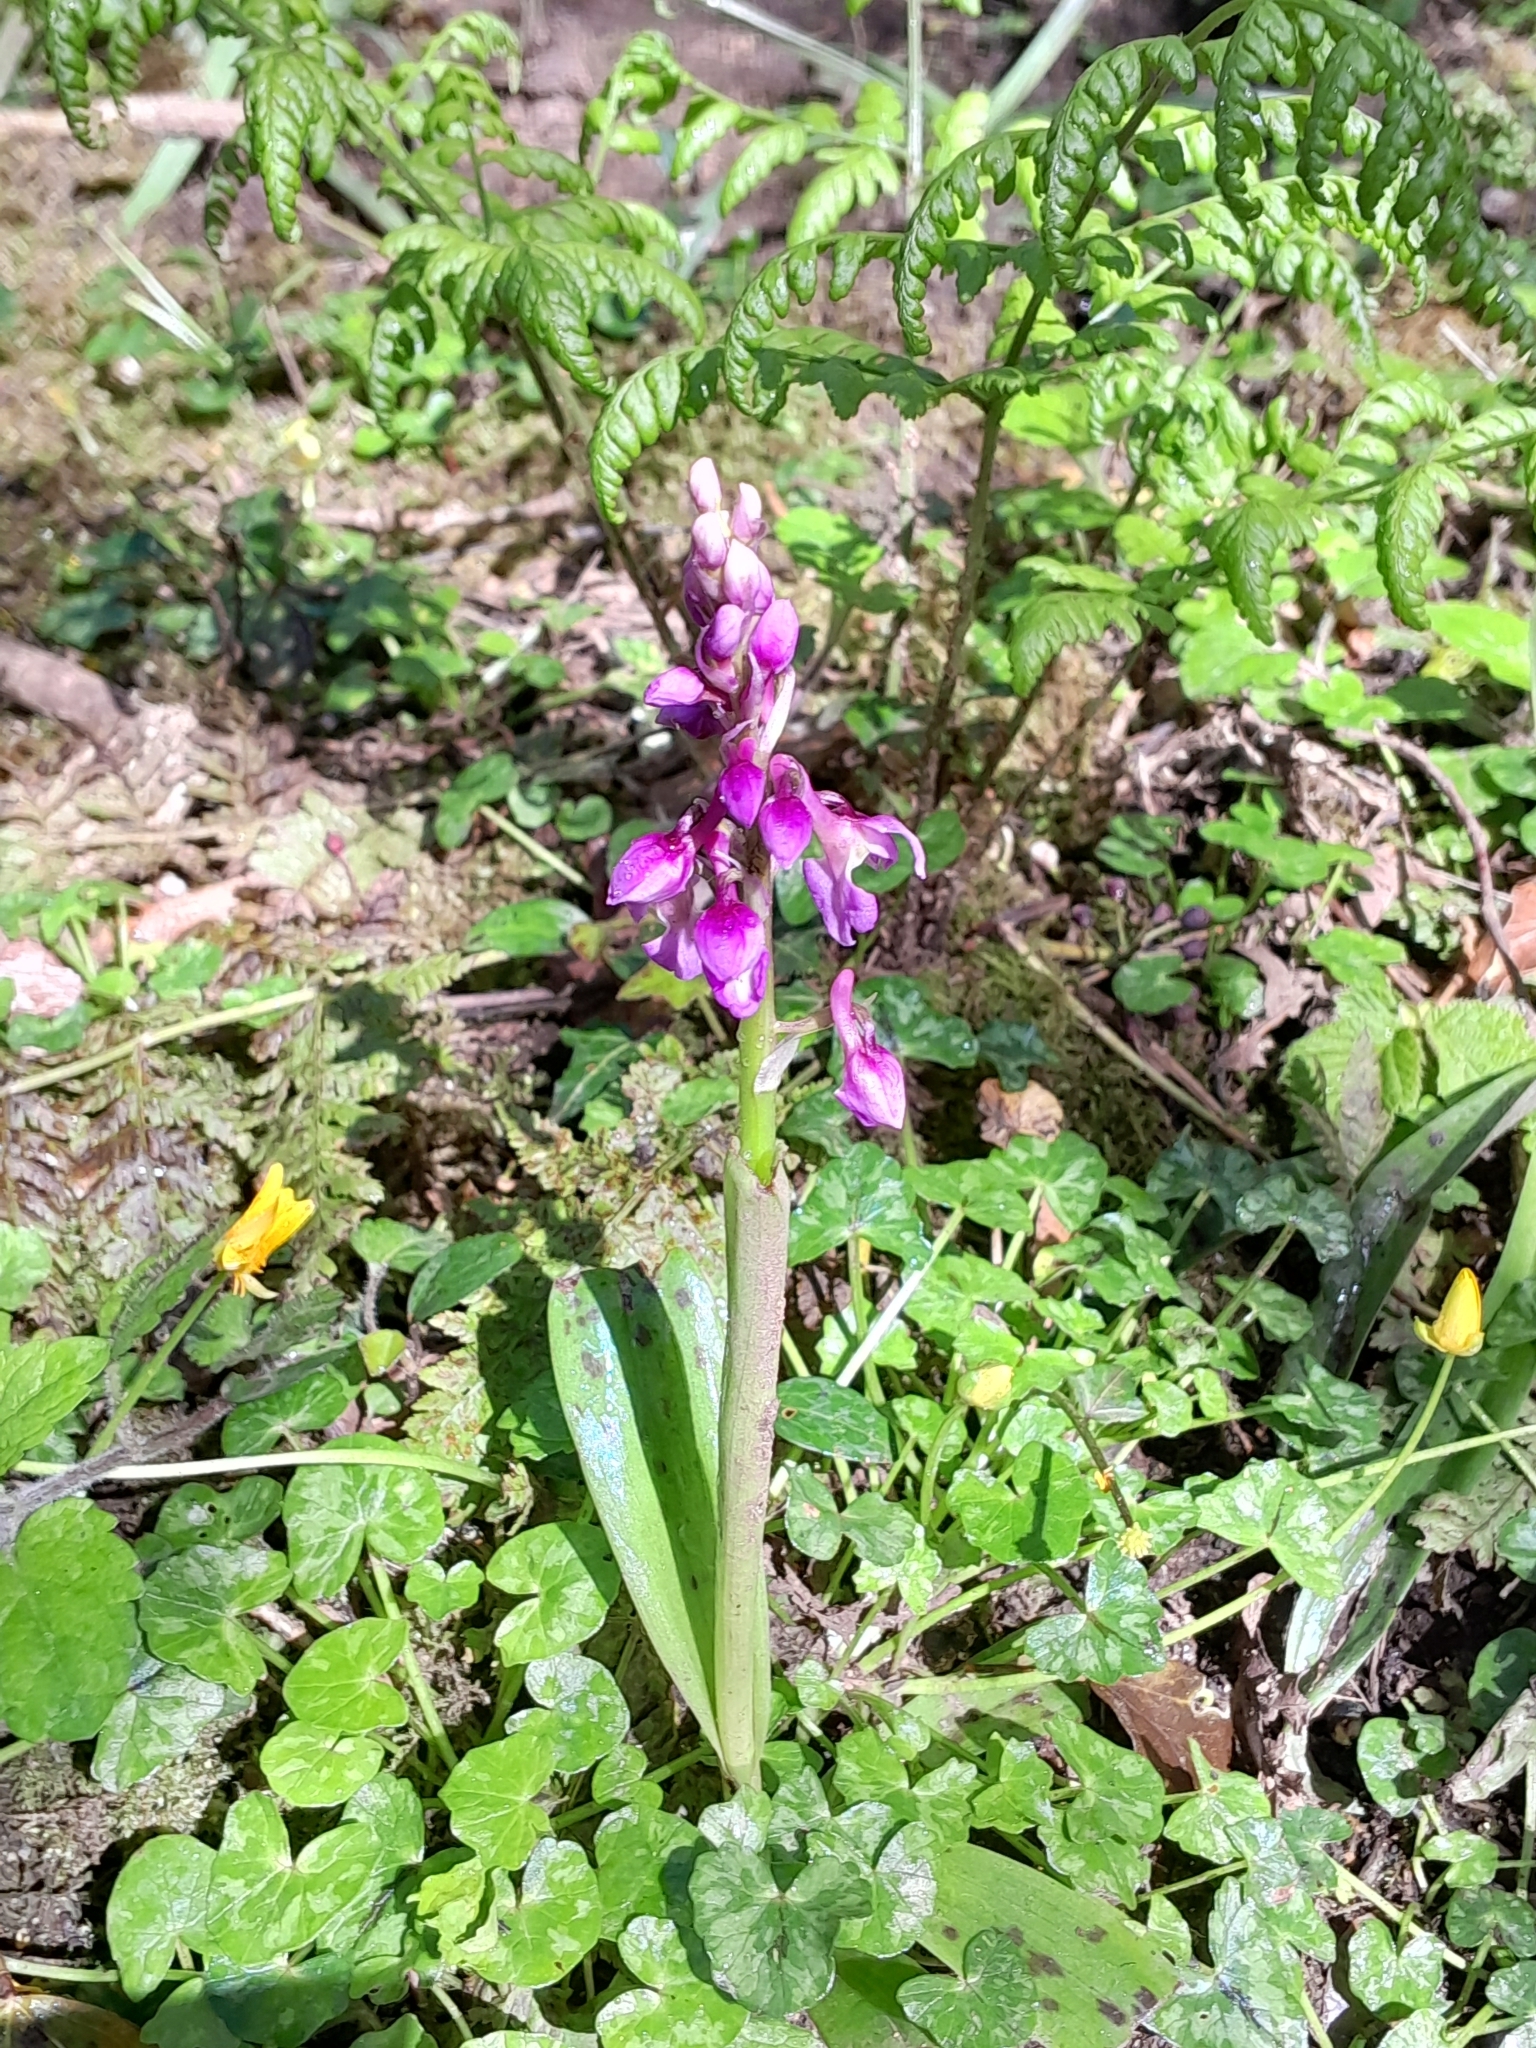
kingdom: Plantae
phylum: Tracheophyta
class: Liliopsida
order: Asparagales
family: Orchidaceae
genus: Orchis
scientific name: Orchis mascula
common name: Early-purple orchid
